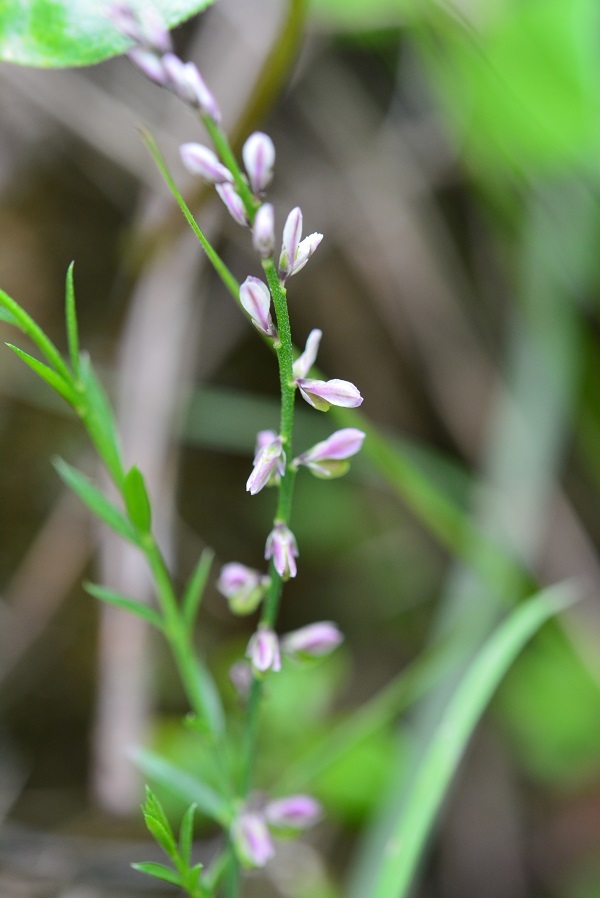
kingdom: Plantae
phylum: Tracheophyta
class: Magnoliopsida
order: Fabales
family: Polygalaceae
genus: Polygala
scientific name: Polygala paniculata
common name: Orosne
